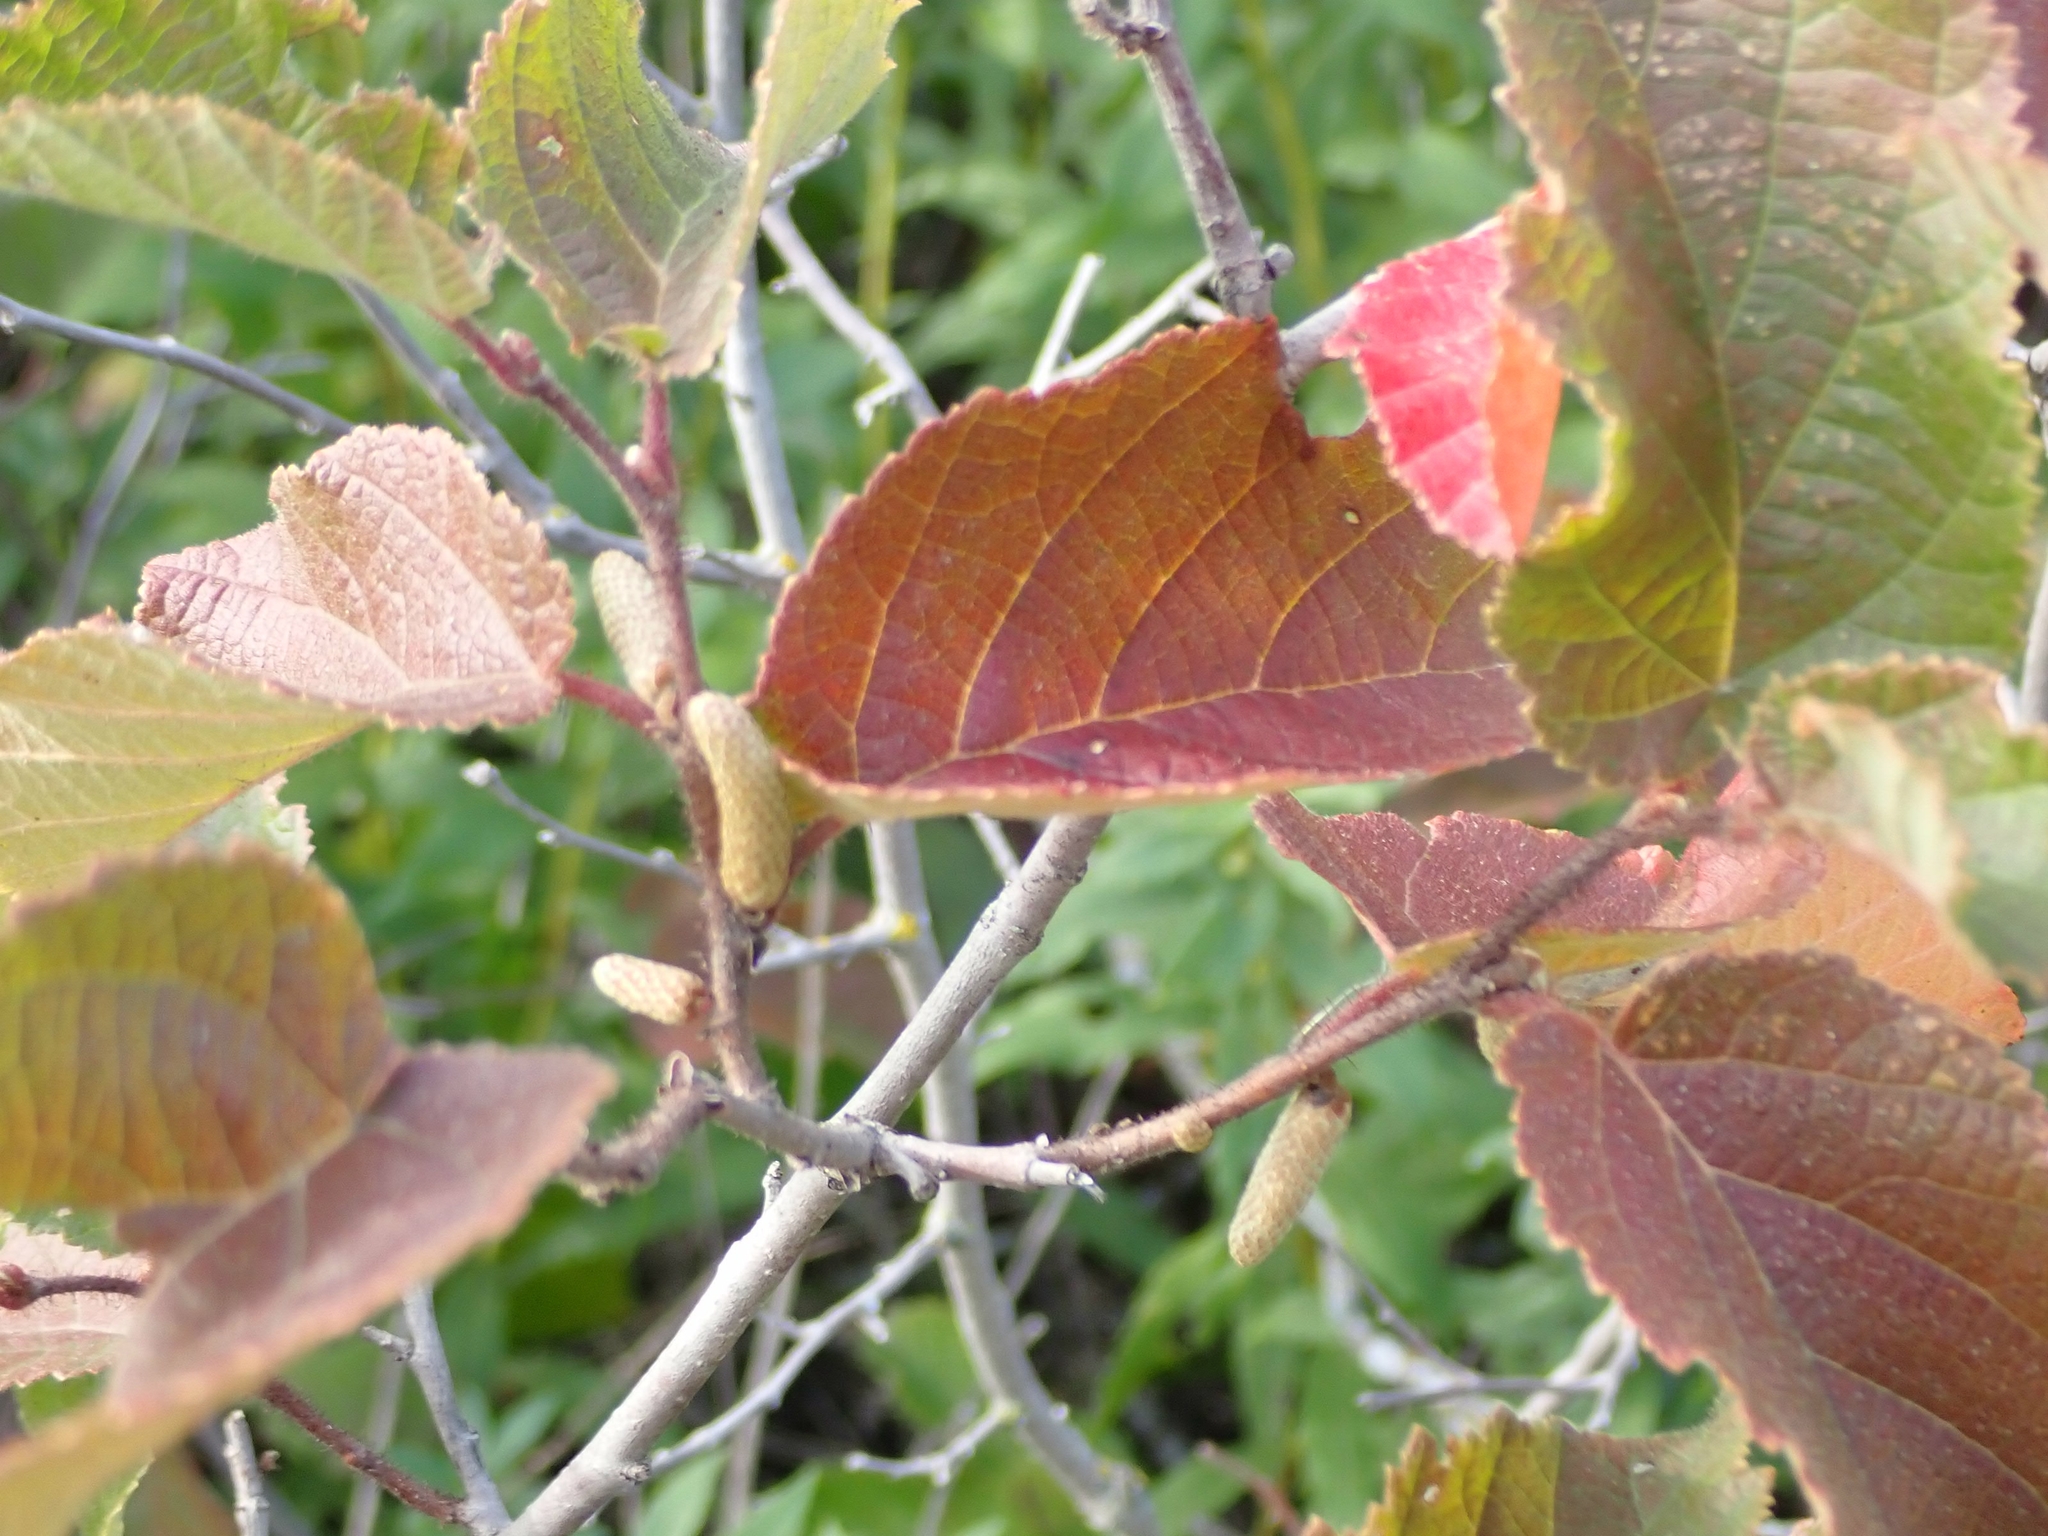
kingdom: Plantae
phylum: Tracheophyta
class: Magnoliopsida
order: Fagales
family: Betulaceae
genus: Corylus
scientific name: Corylus americana
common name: American hazel
